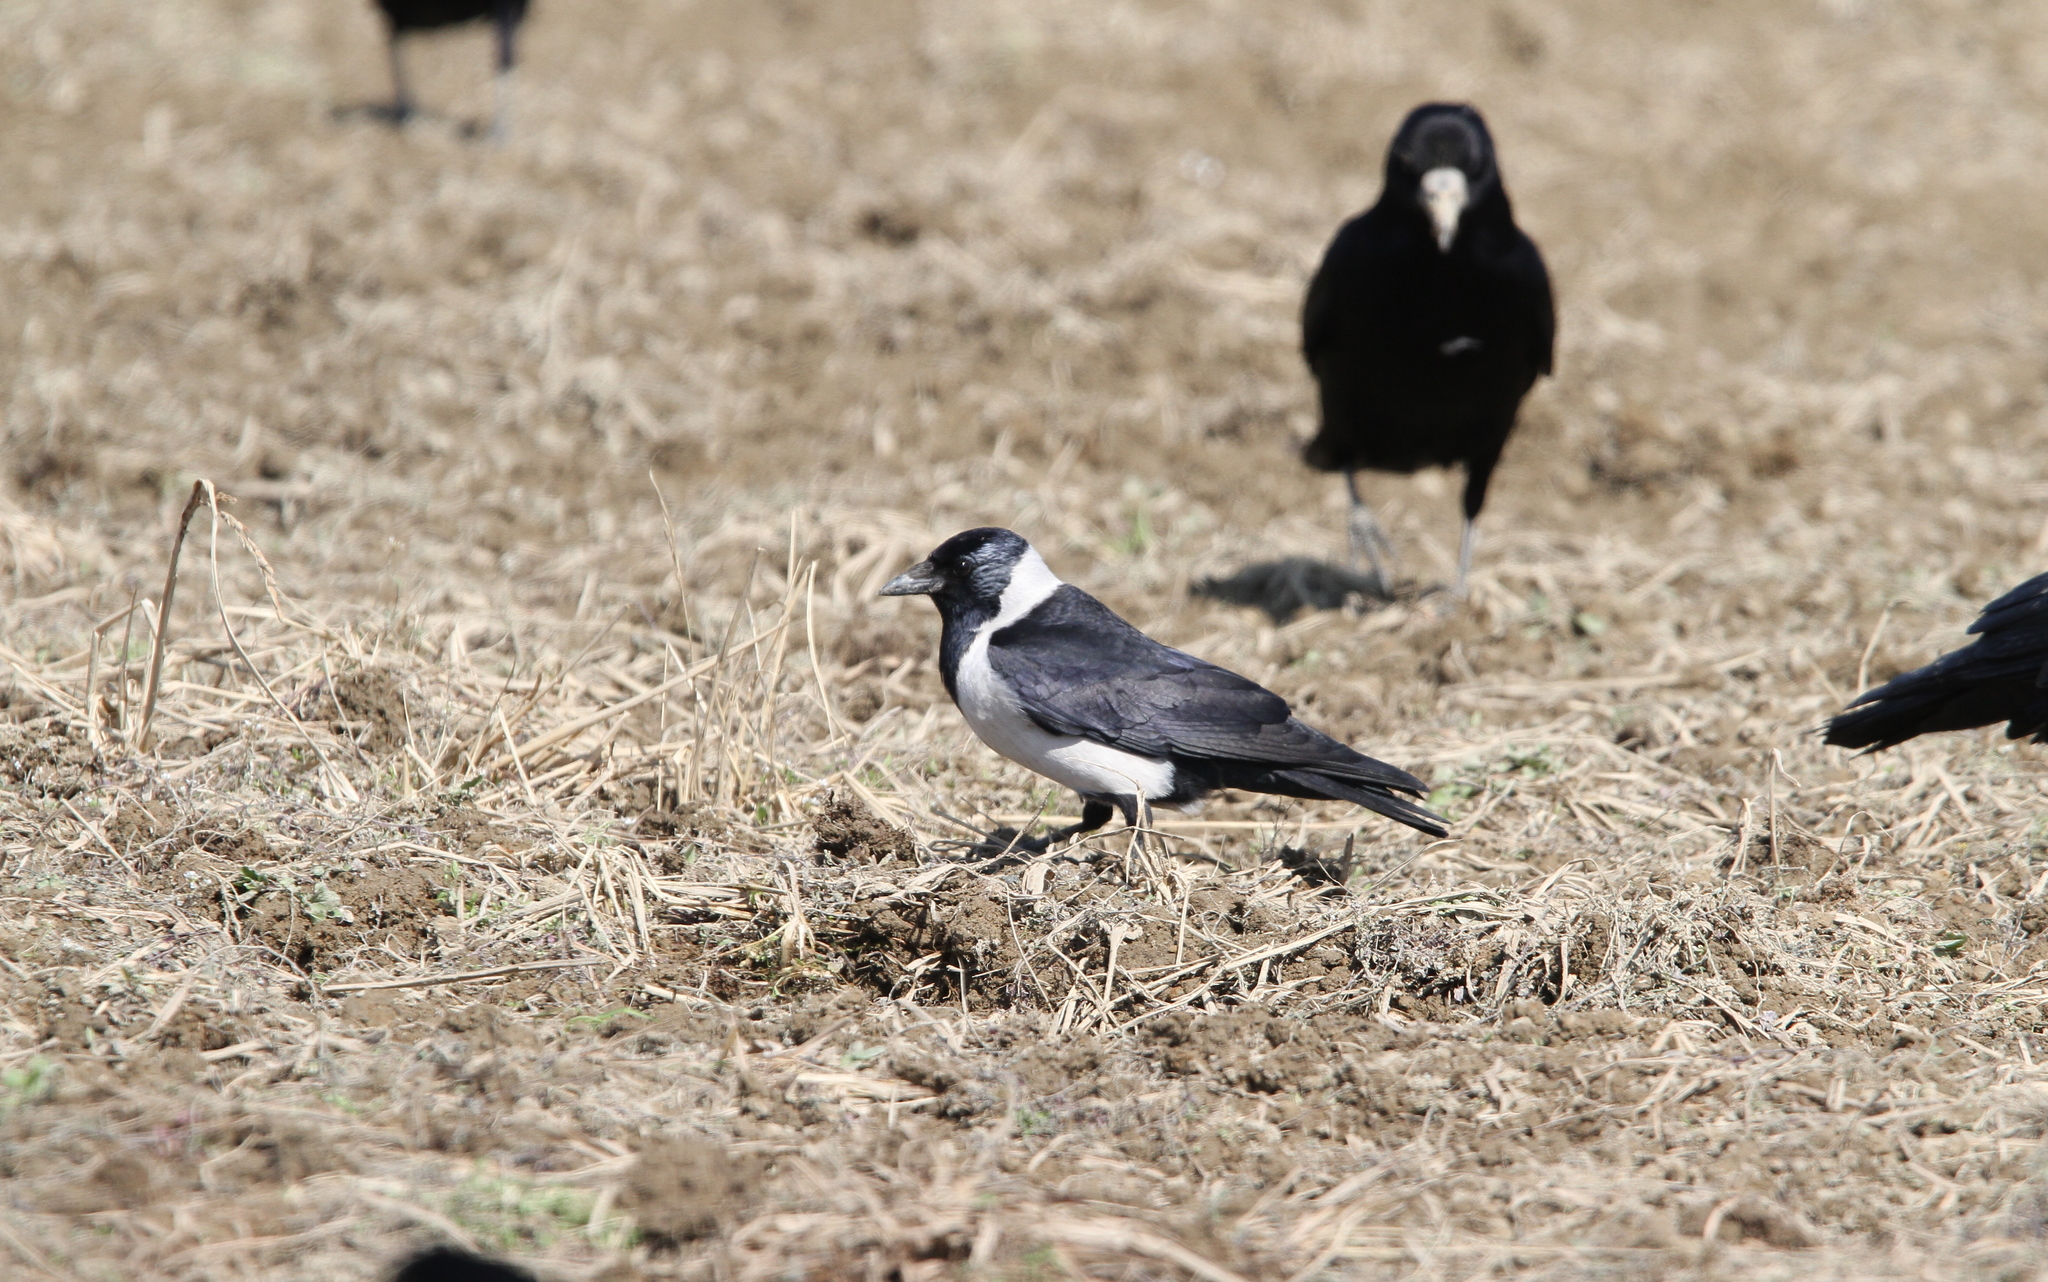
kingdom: Animalia
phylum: Chordata
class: Aves
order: Passeriformes
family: Corvidae
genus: Coloeus
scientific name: Coloeus dauuricus
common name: Daurian jackdaw
